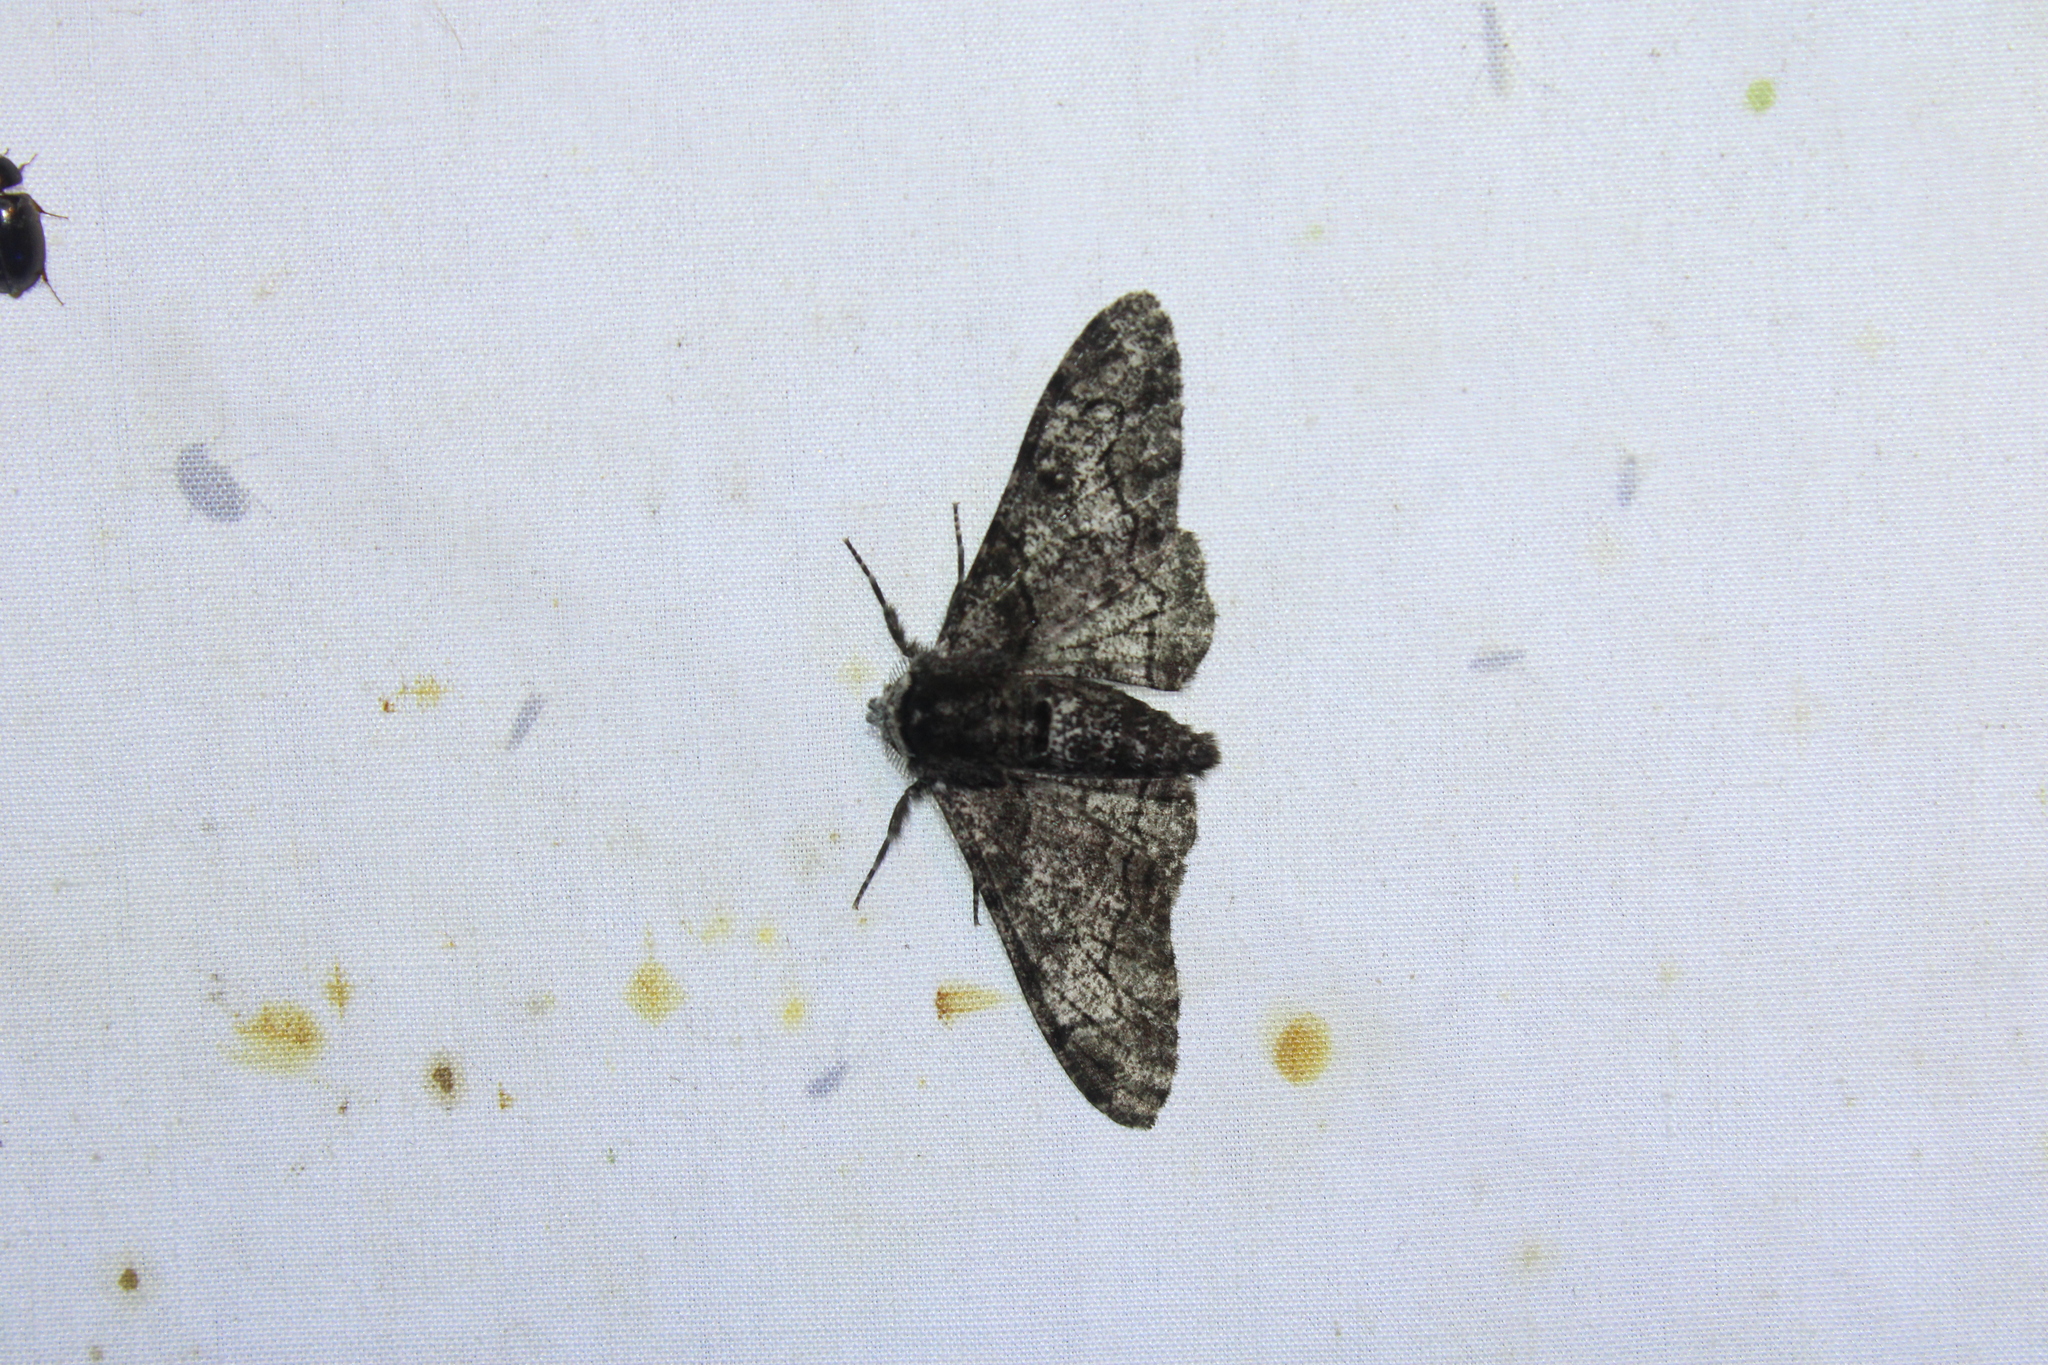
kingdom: Animalia
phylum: Arthropoda
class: Insecta
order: Lepidoptera
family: Geometridae
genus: Biston
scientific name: Biston betularia
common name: Peppered moth
